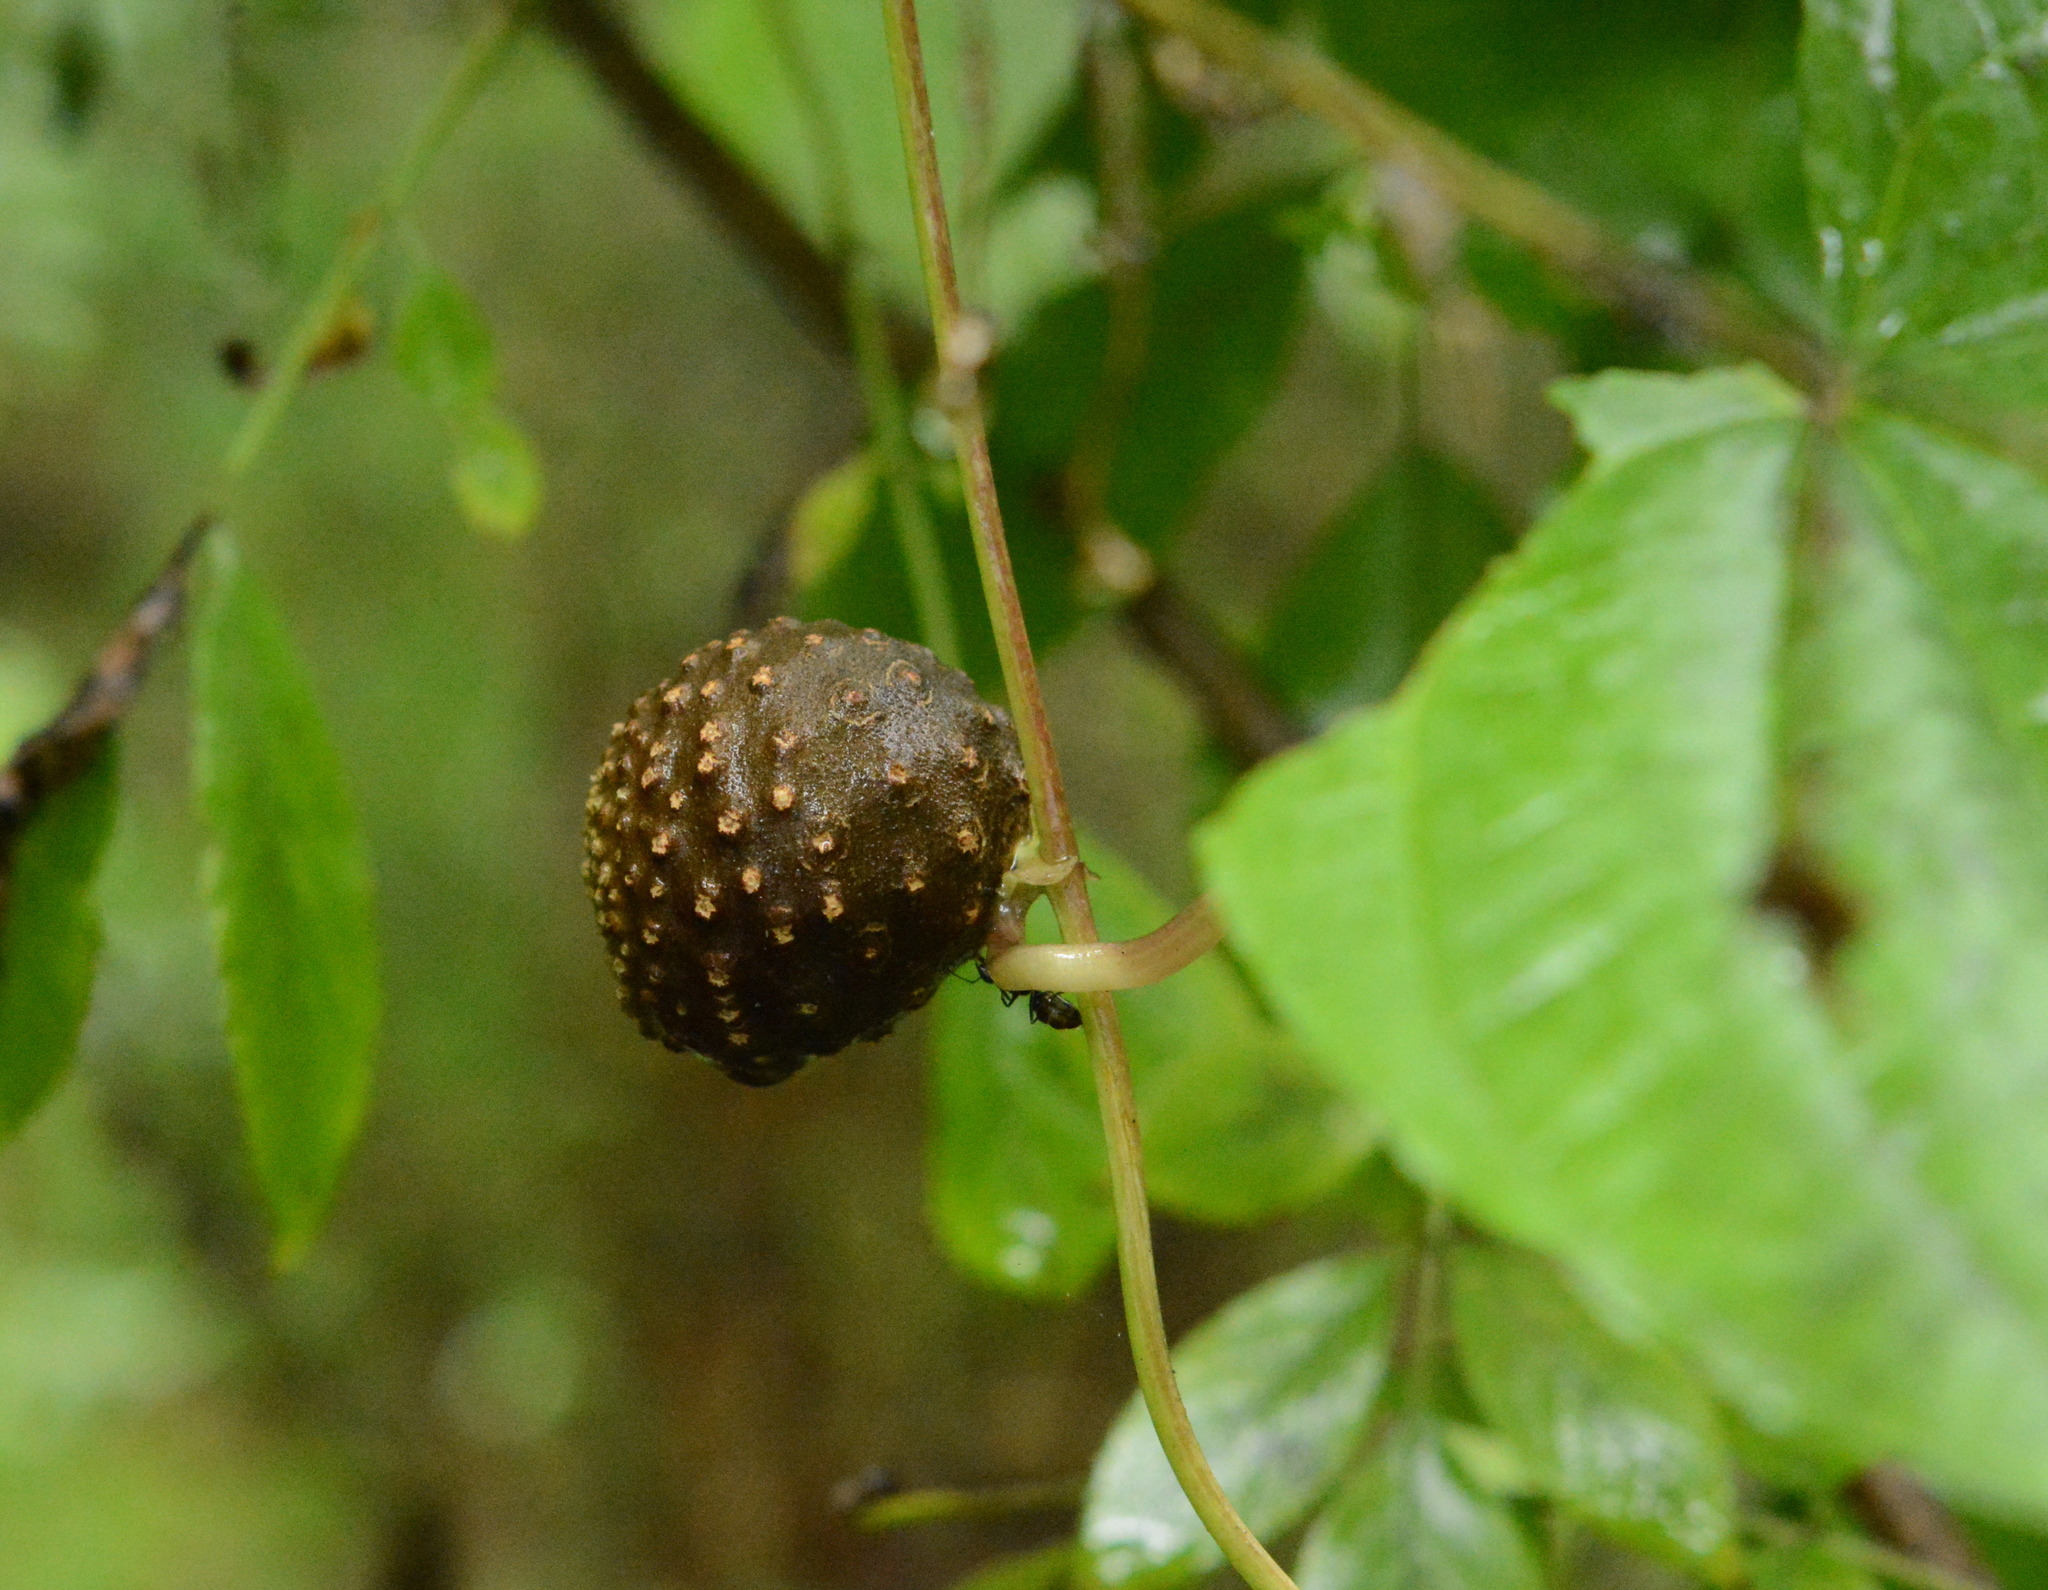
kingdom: Plantae
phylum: Tracheophyta
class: Liliopsida
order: Dioscoreales
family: Dioscoreaceae
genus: Dioscorea
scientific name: Dioscorea bulbifera
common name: Air yam
